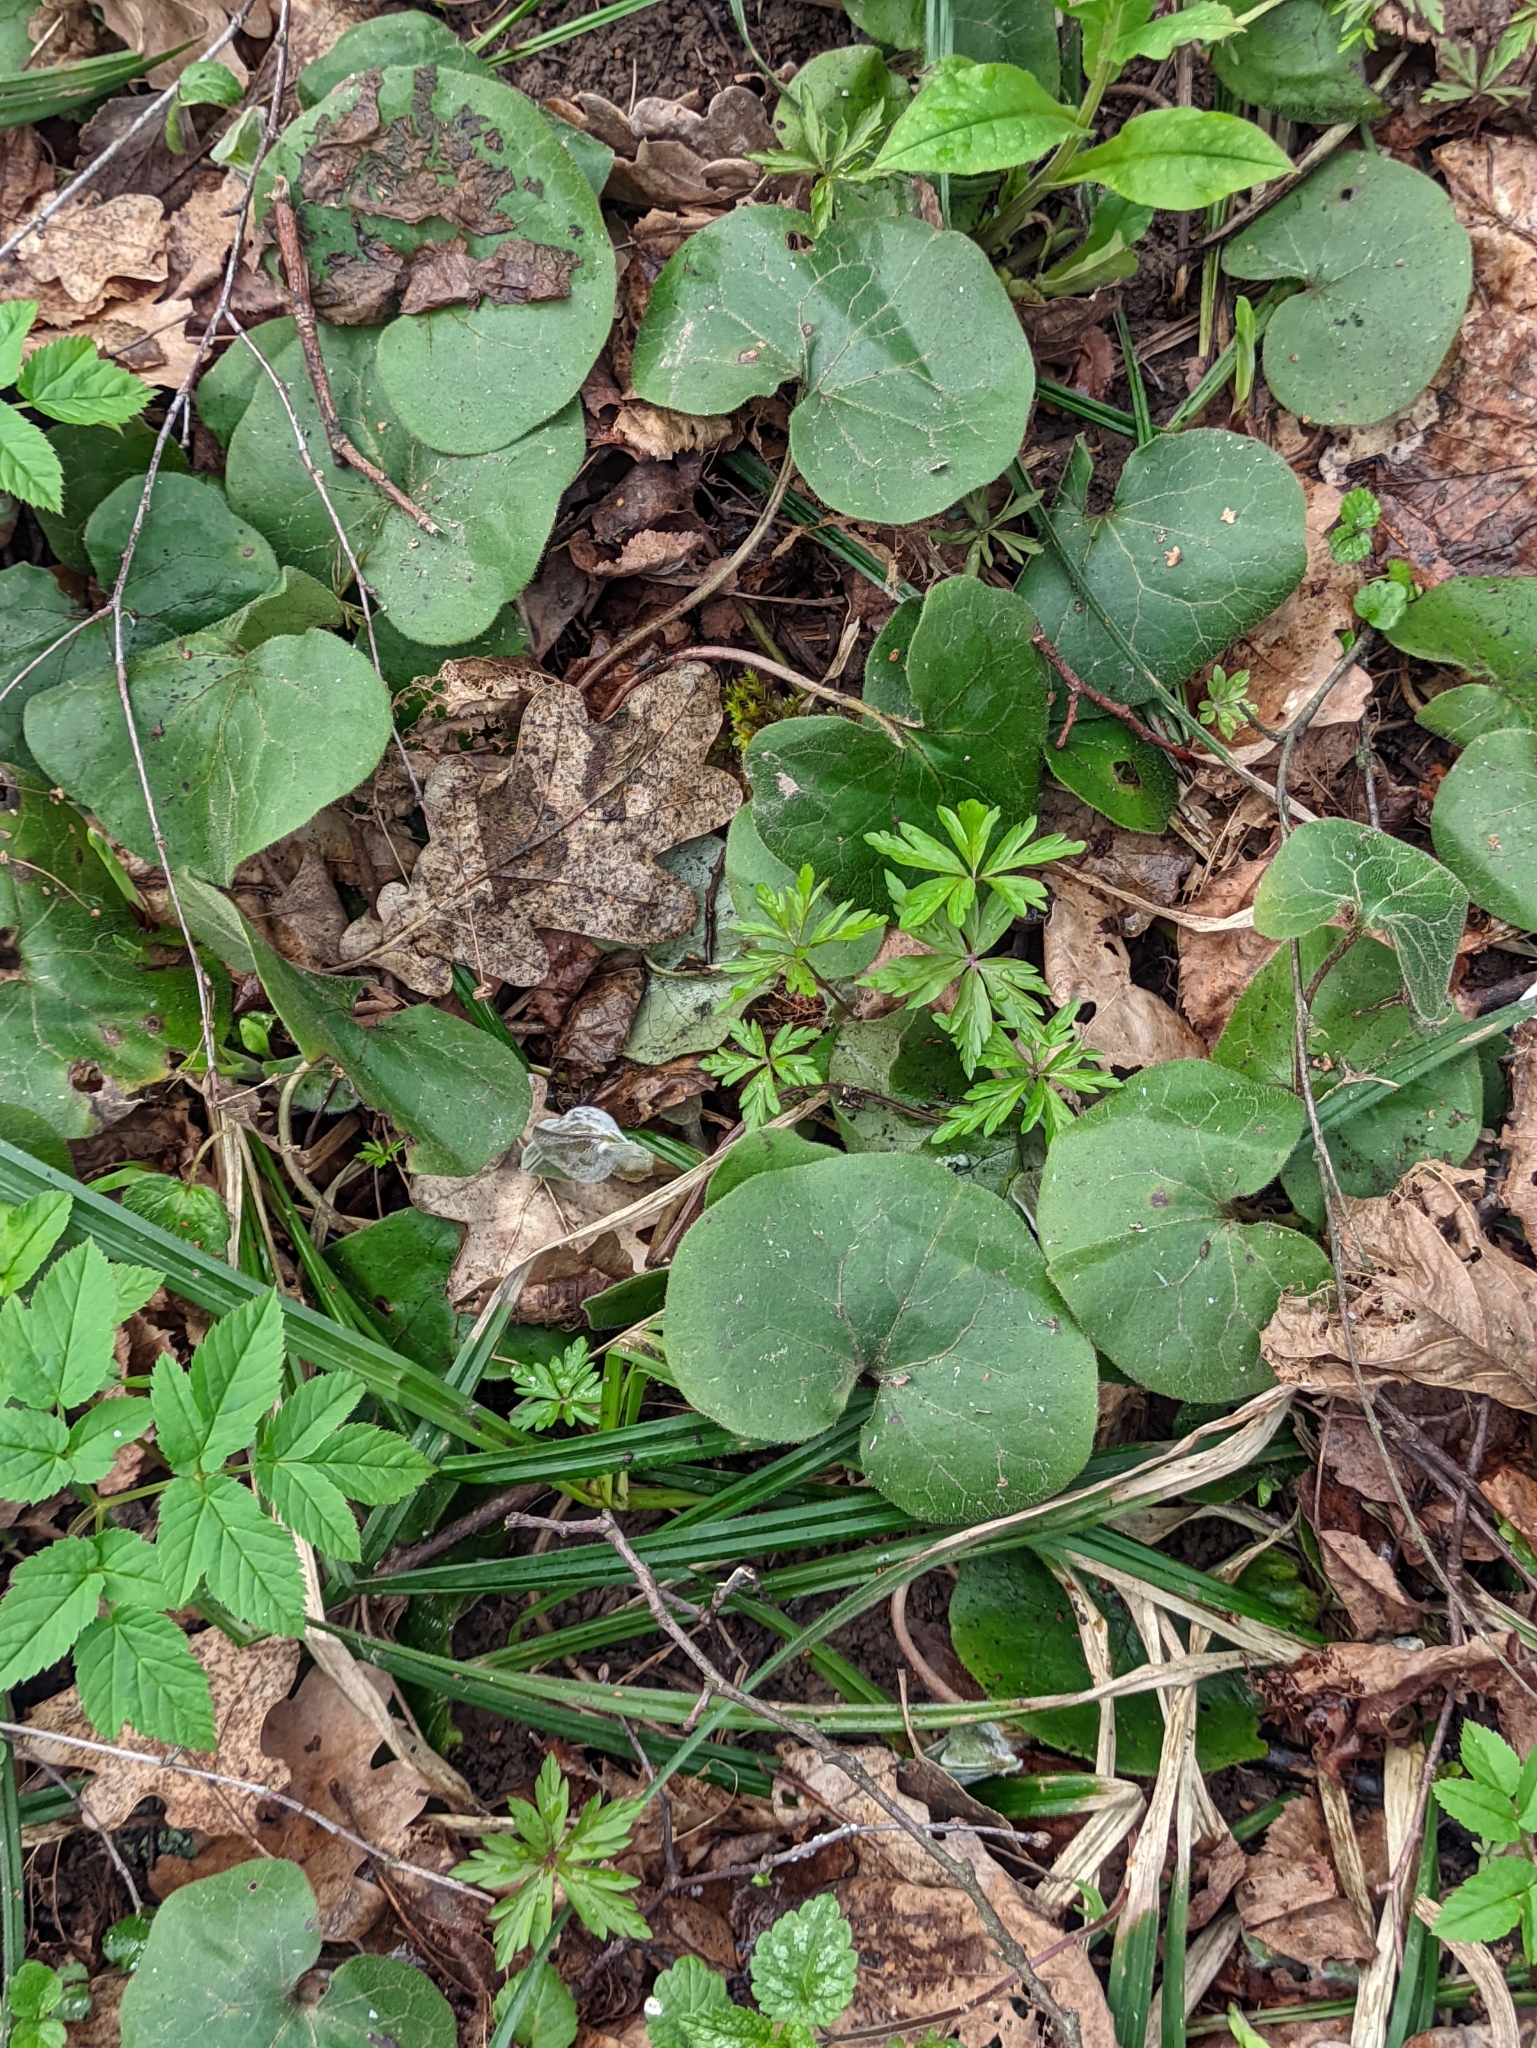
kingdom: Plantae
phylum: Tracheophyta
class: Magnoliopsida
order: Piperales
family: Aristolochiaceae
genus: Asarum
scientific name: Asarum europaeum
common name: Asarabacca
